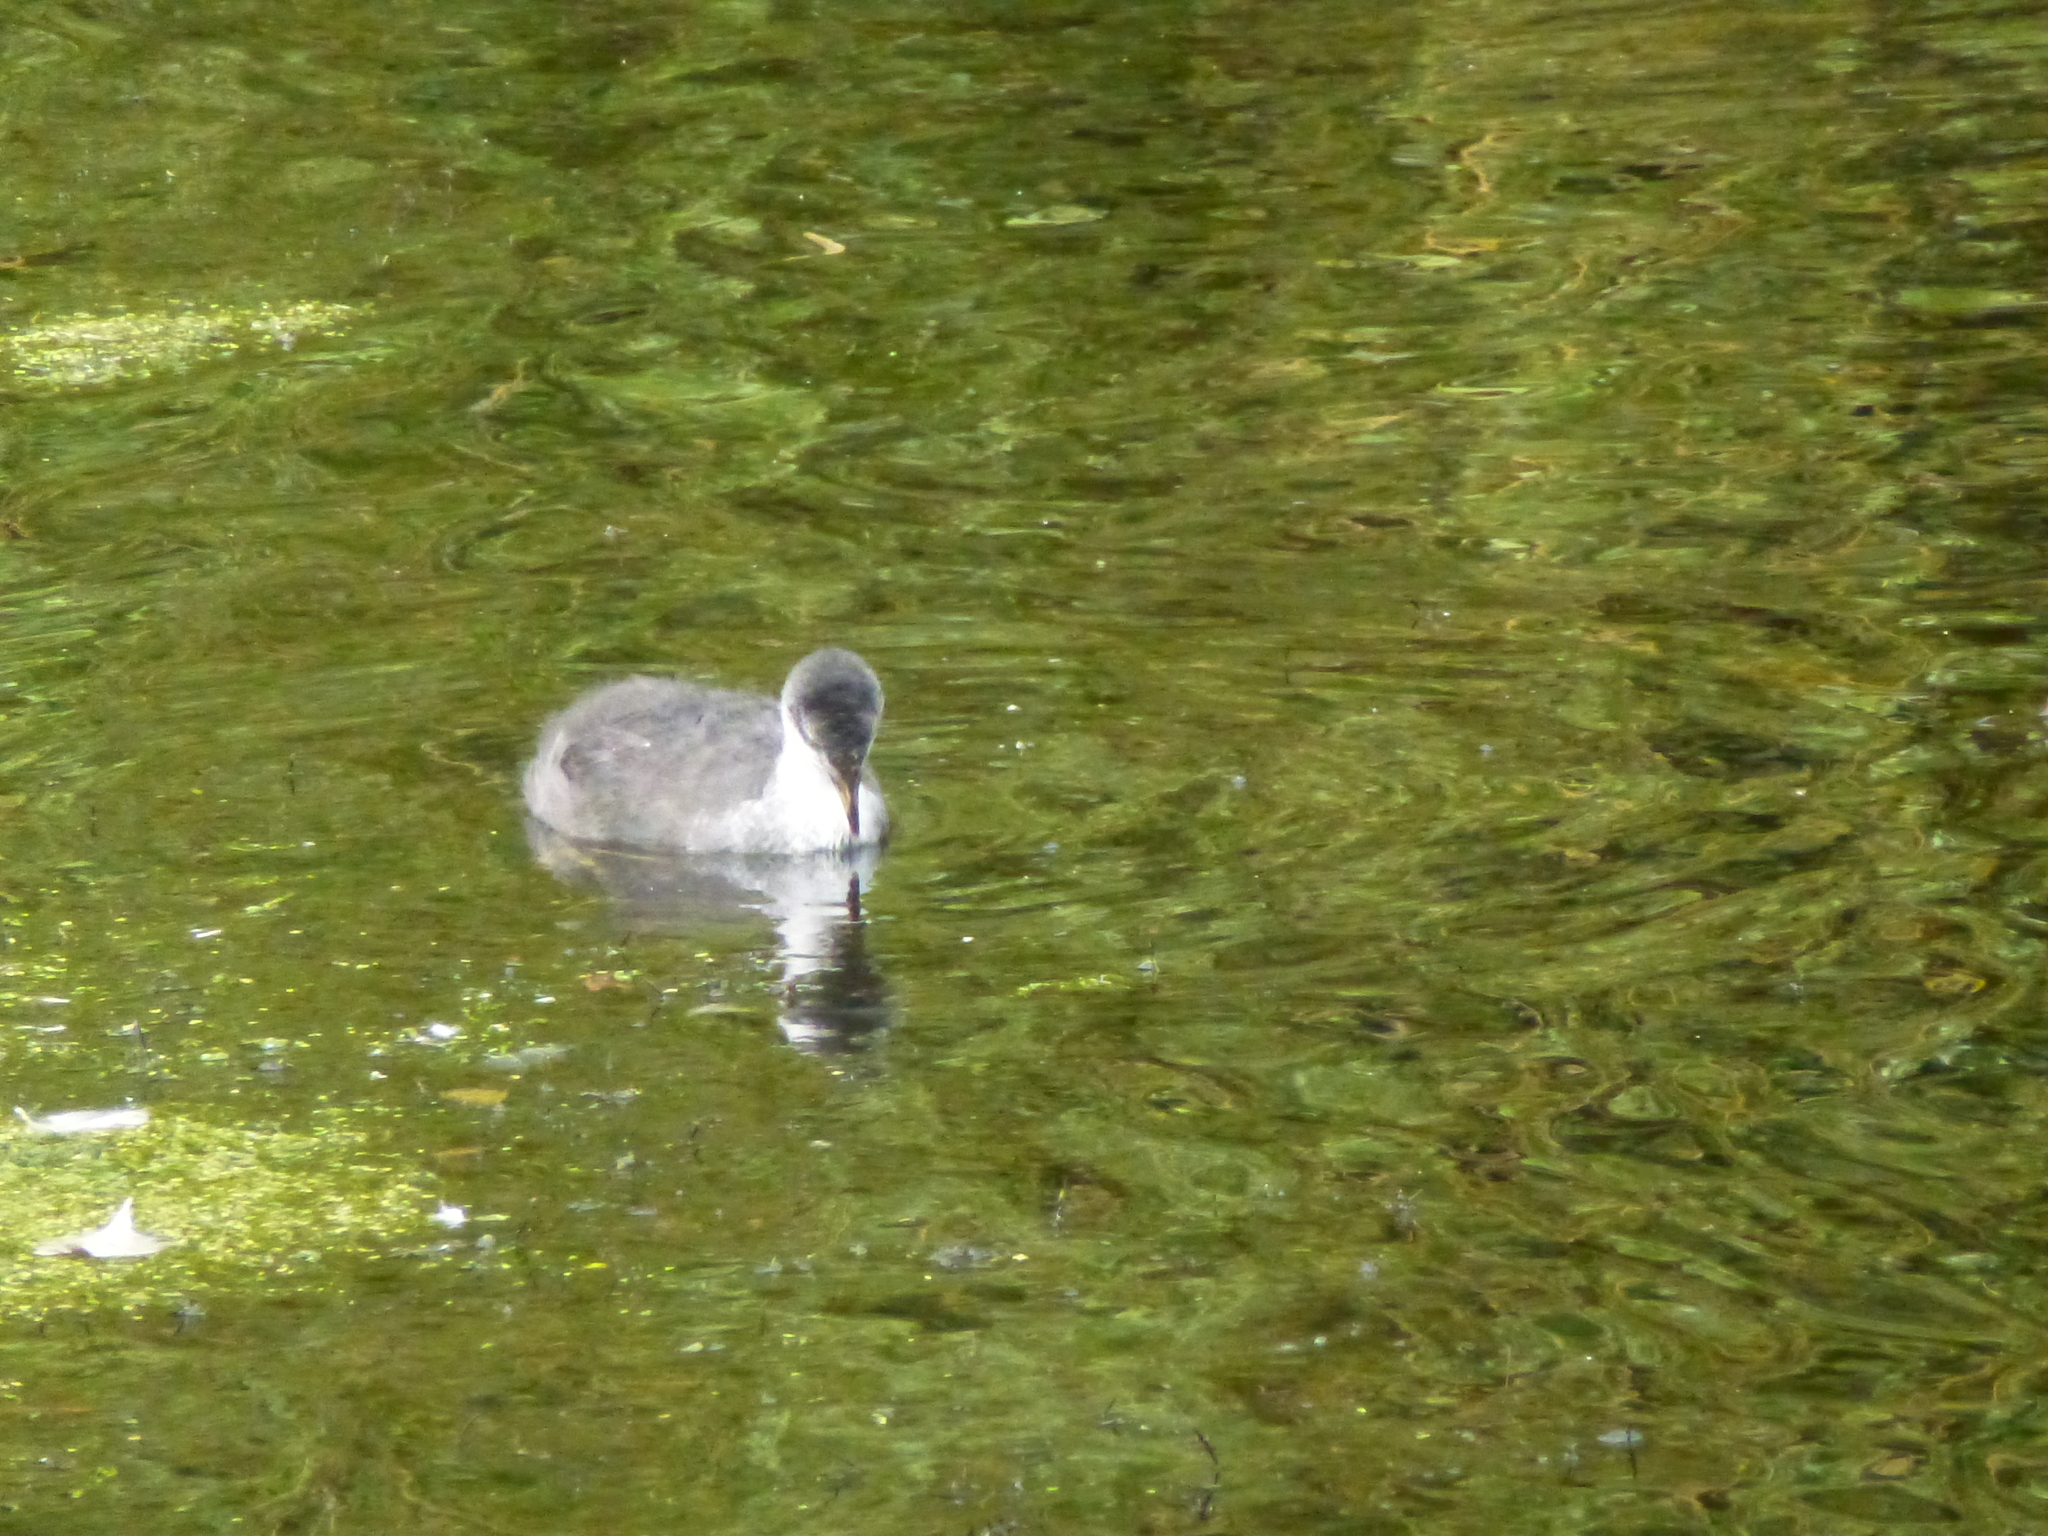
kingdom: Animalia
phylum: Chordata
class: Aves
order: Gruiformes
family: Rallidae
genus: Fulica
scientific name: Fulica atra
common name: Eurasian coot
